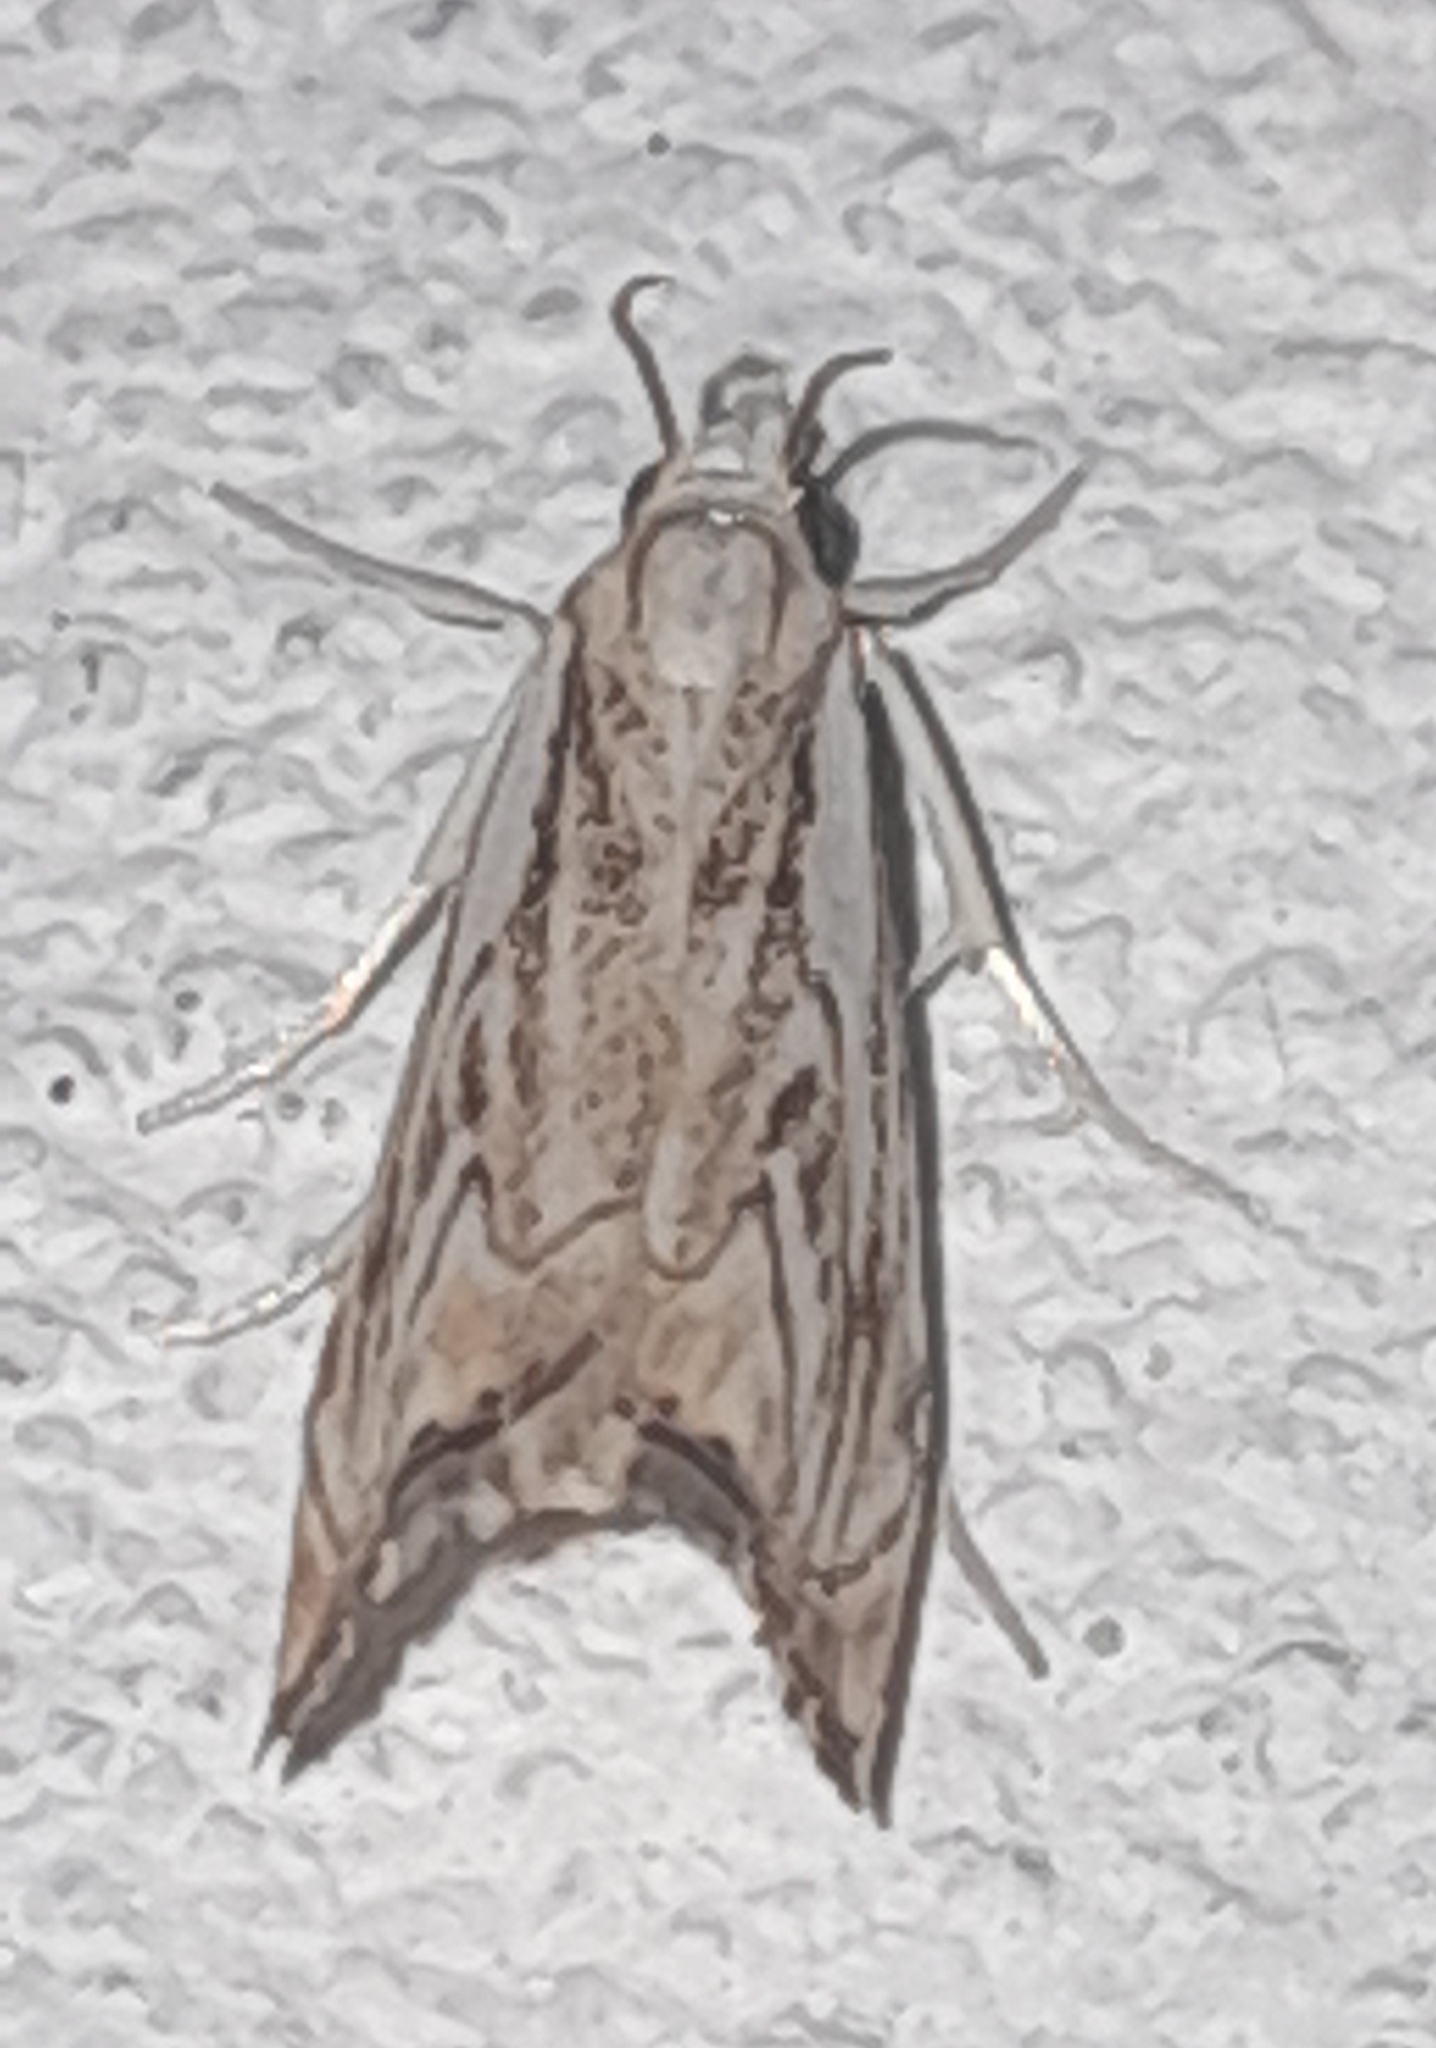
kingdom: Animalia
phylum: Arthropoda
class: Insecta
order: Lepidoptera
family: Crambidae
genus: Catoptria
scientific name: Catoptria falsella
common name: Chequered grass-veneer
